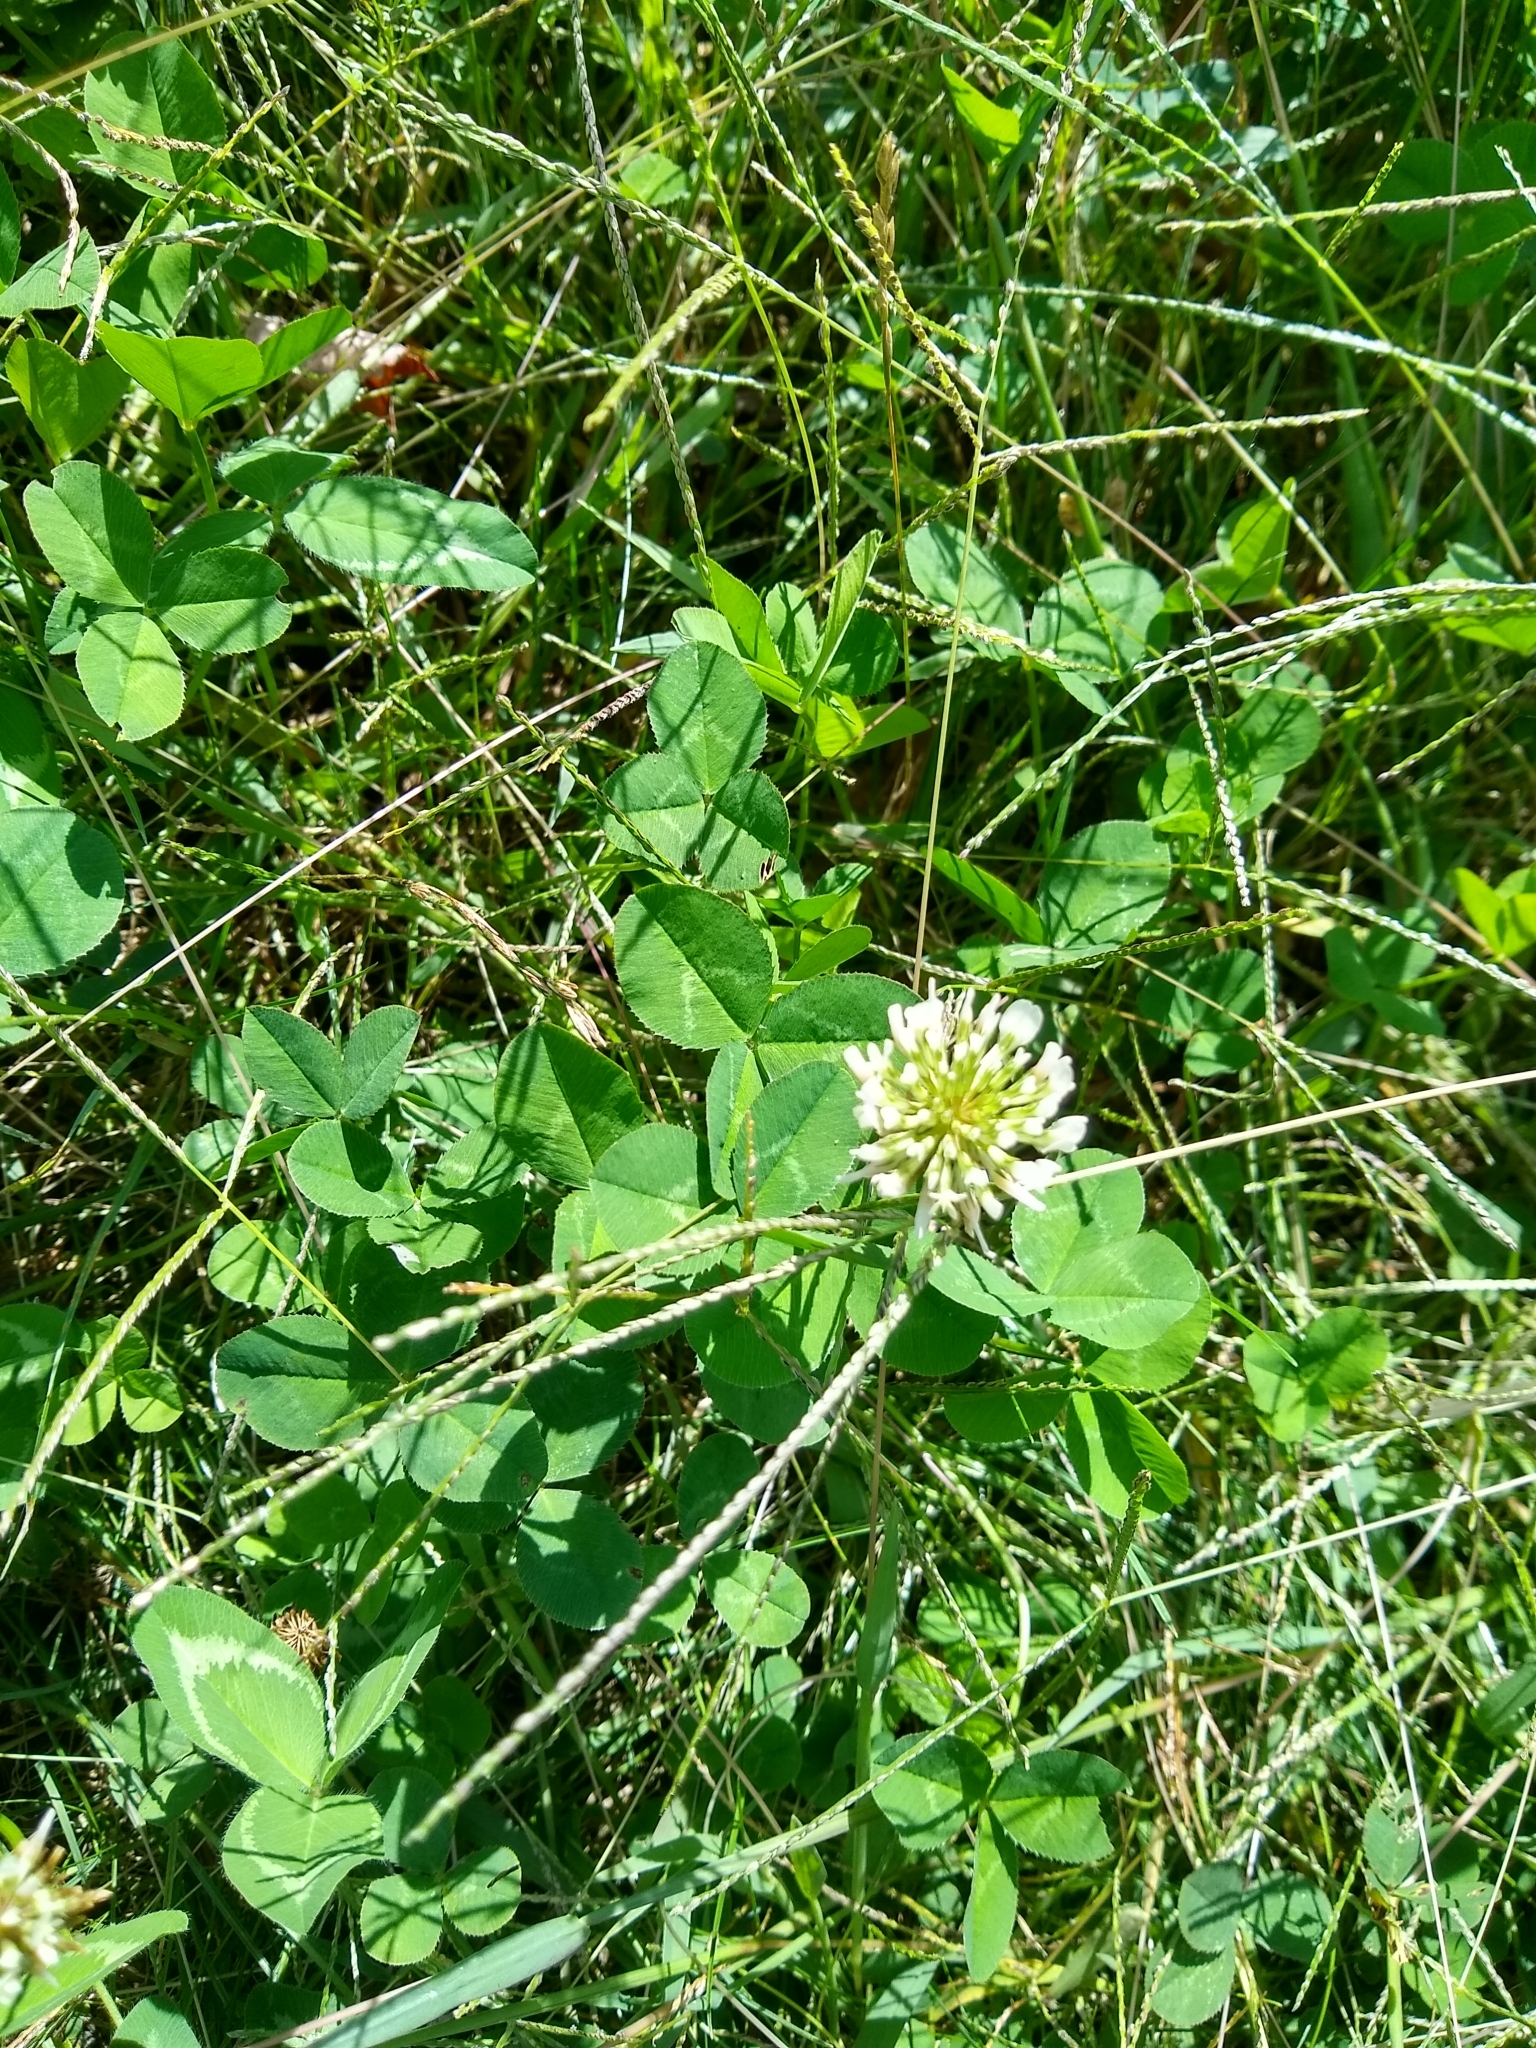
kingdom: Plantae
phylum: Tracheophyta
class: Magnoliopsida
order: Fabales
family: Fabaceae
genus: Trifolium
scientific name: Trifolium repens
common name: White clover
